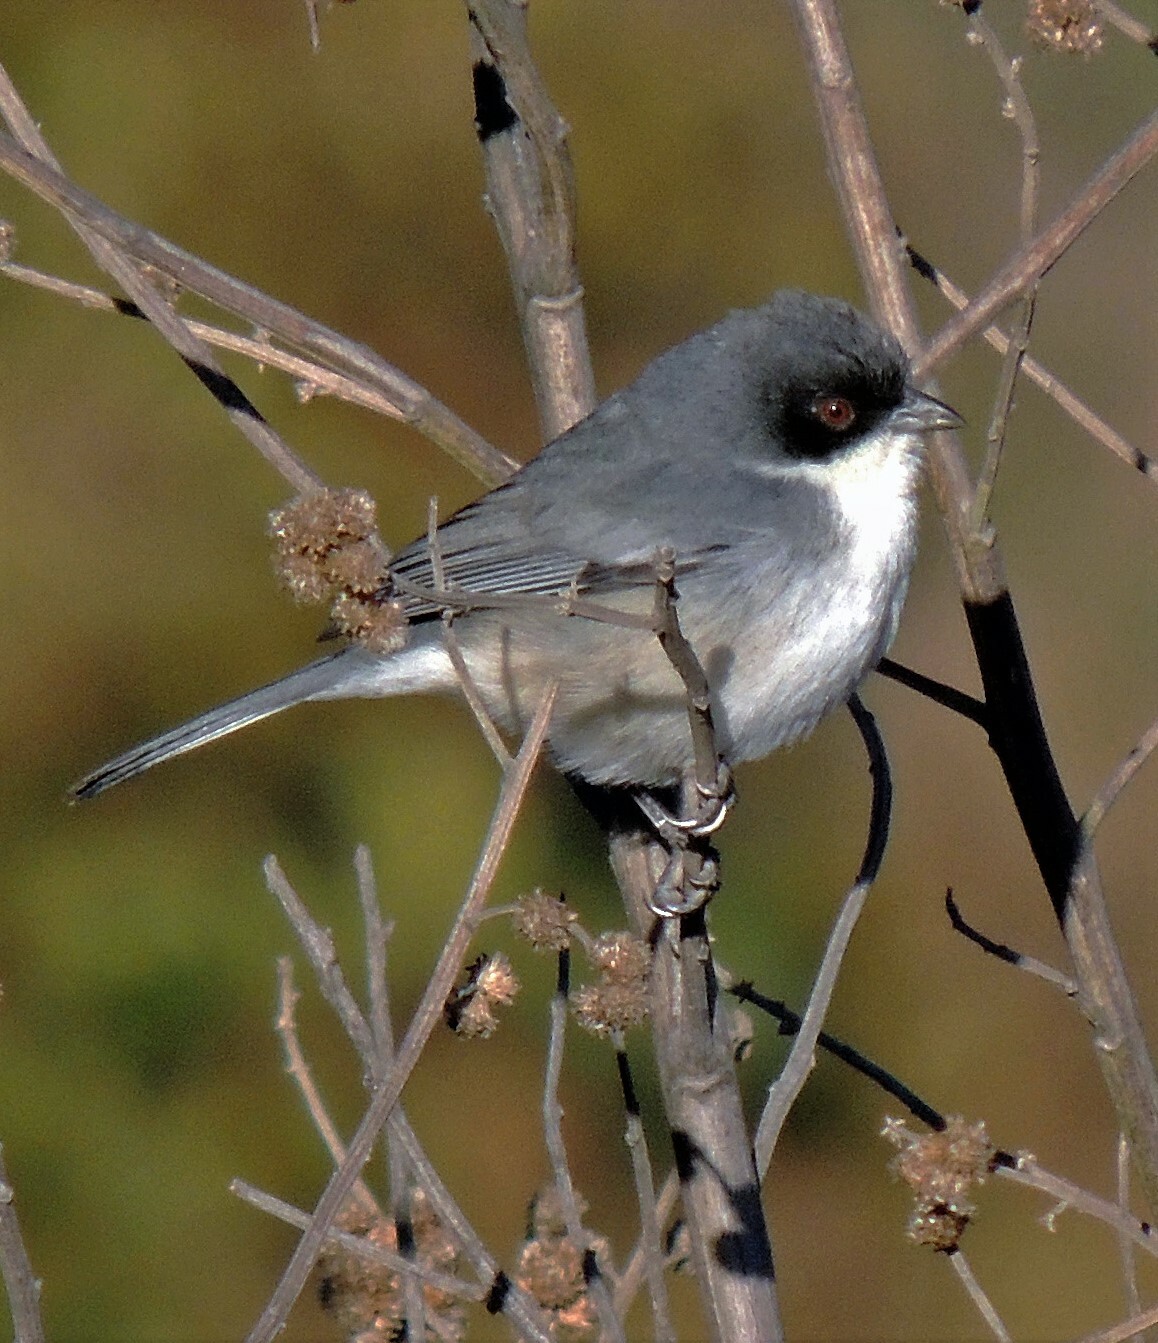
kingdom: Animalia
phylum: Chordata
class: Aves
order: Passeriformes
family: Thraupidae
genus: Microspingus
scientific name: Microspingus melanoleucus
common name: Black-capped warbling-finch
